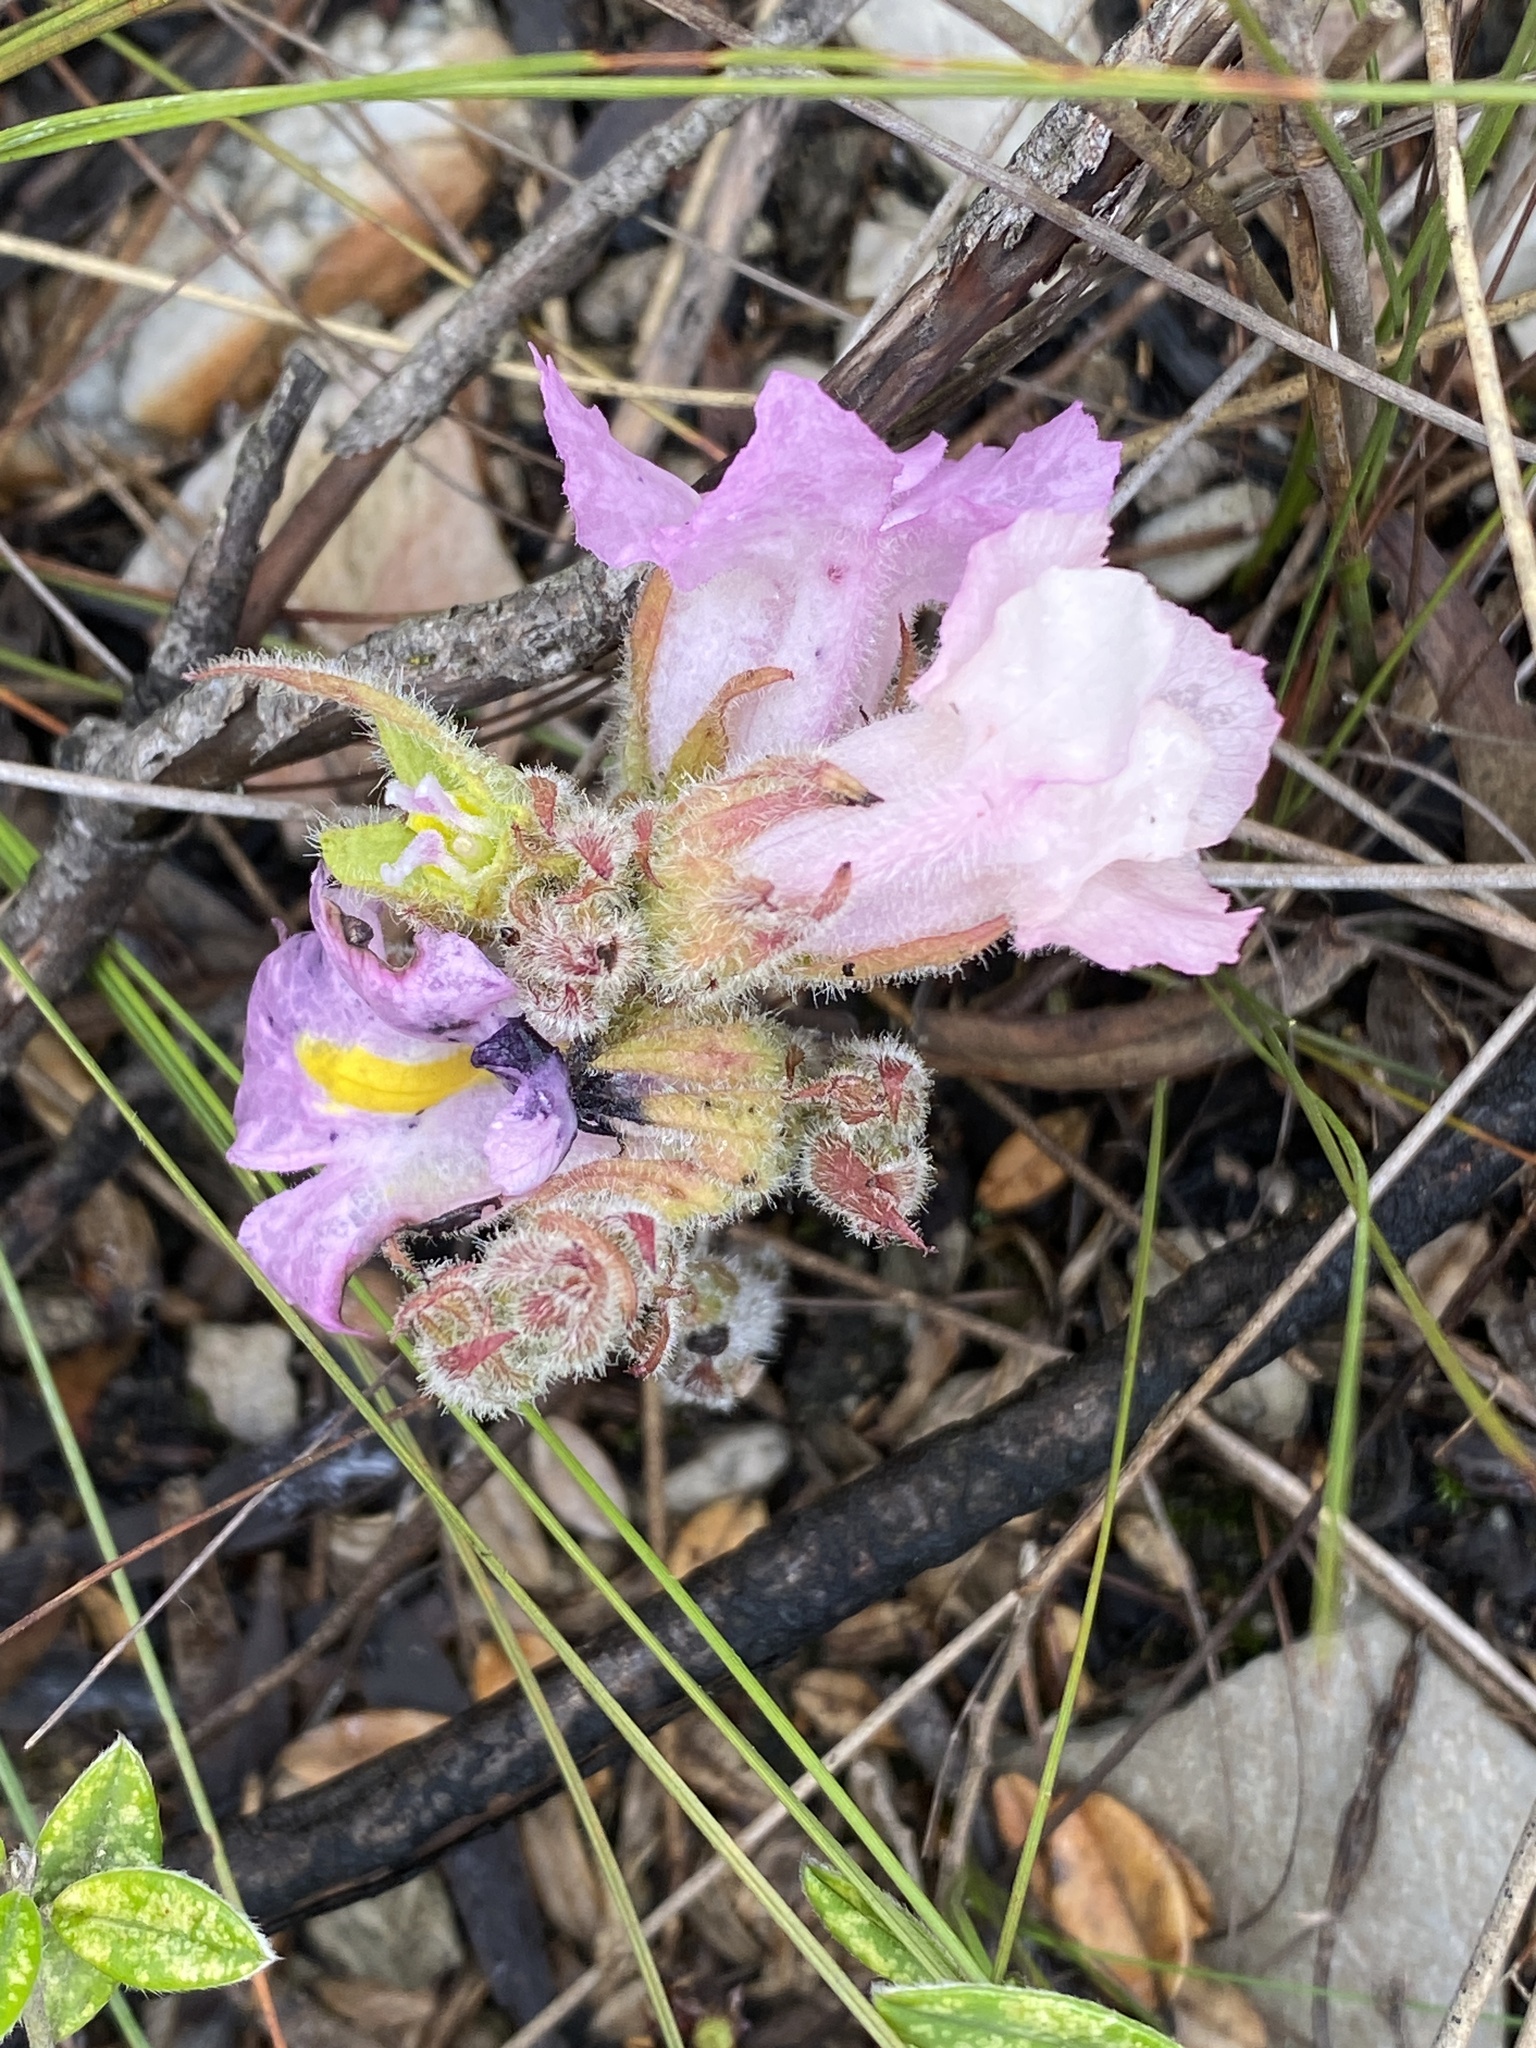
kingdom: Plantae
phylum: Tracheophyta
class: Magnoliopsida
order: Lamiales
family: Orobanchaceae
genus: Harveya
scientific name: Harveya purpurea
